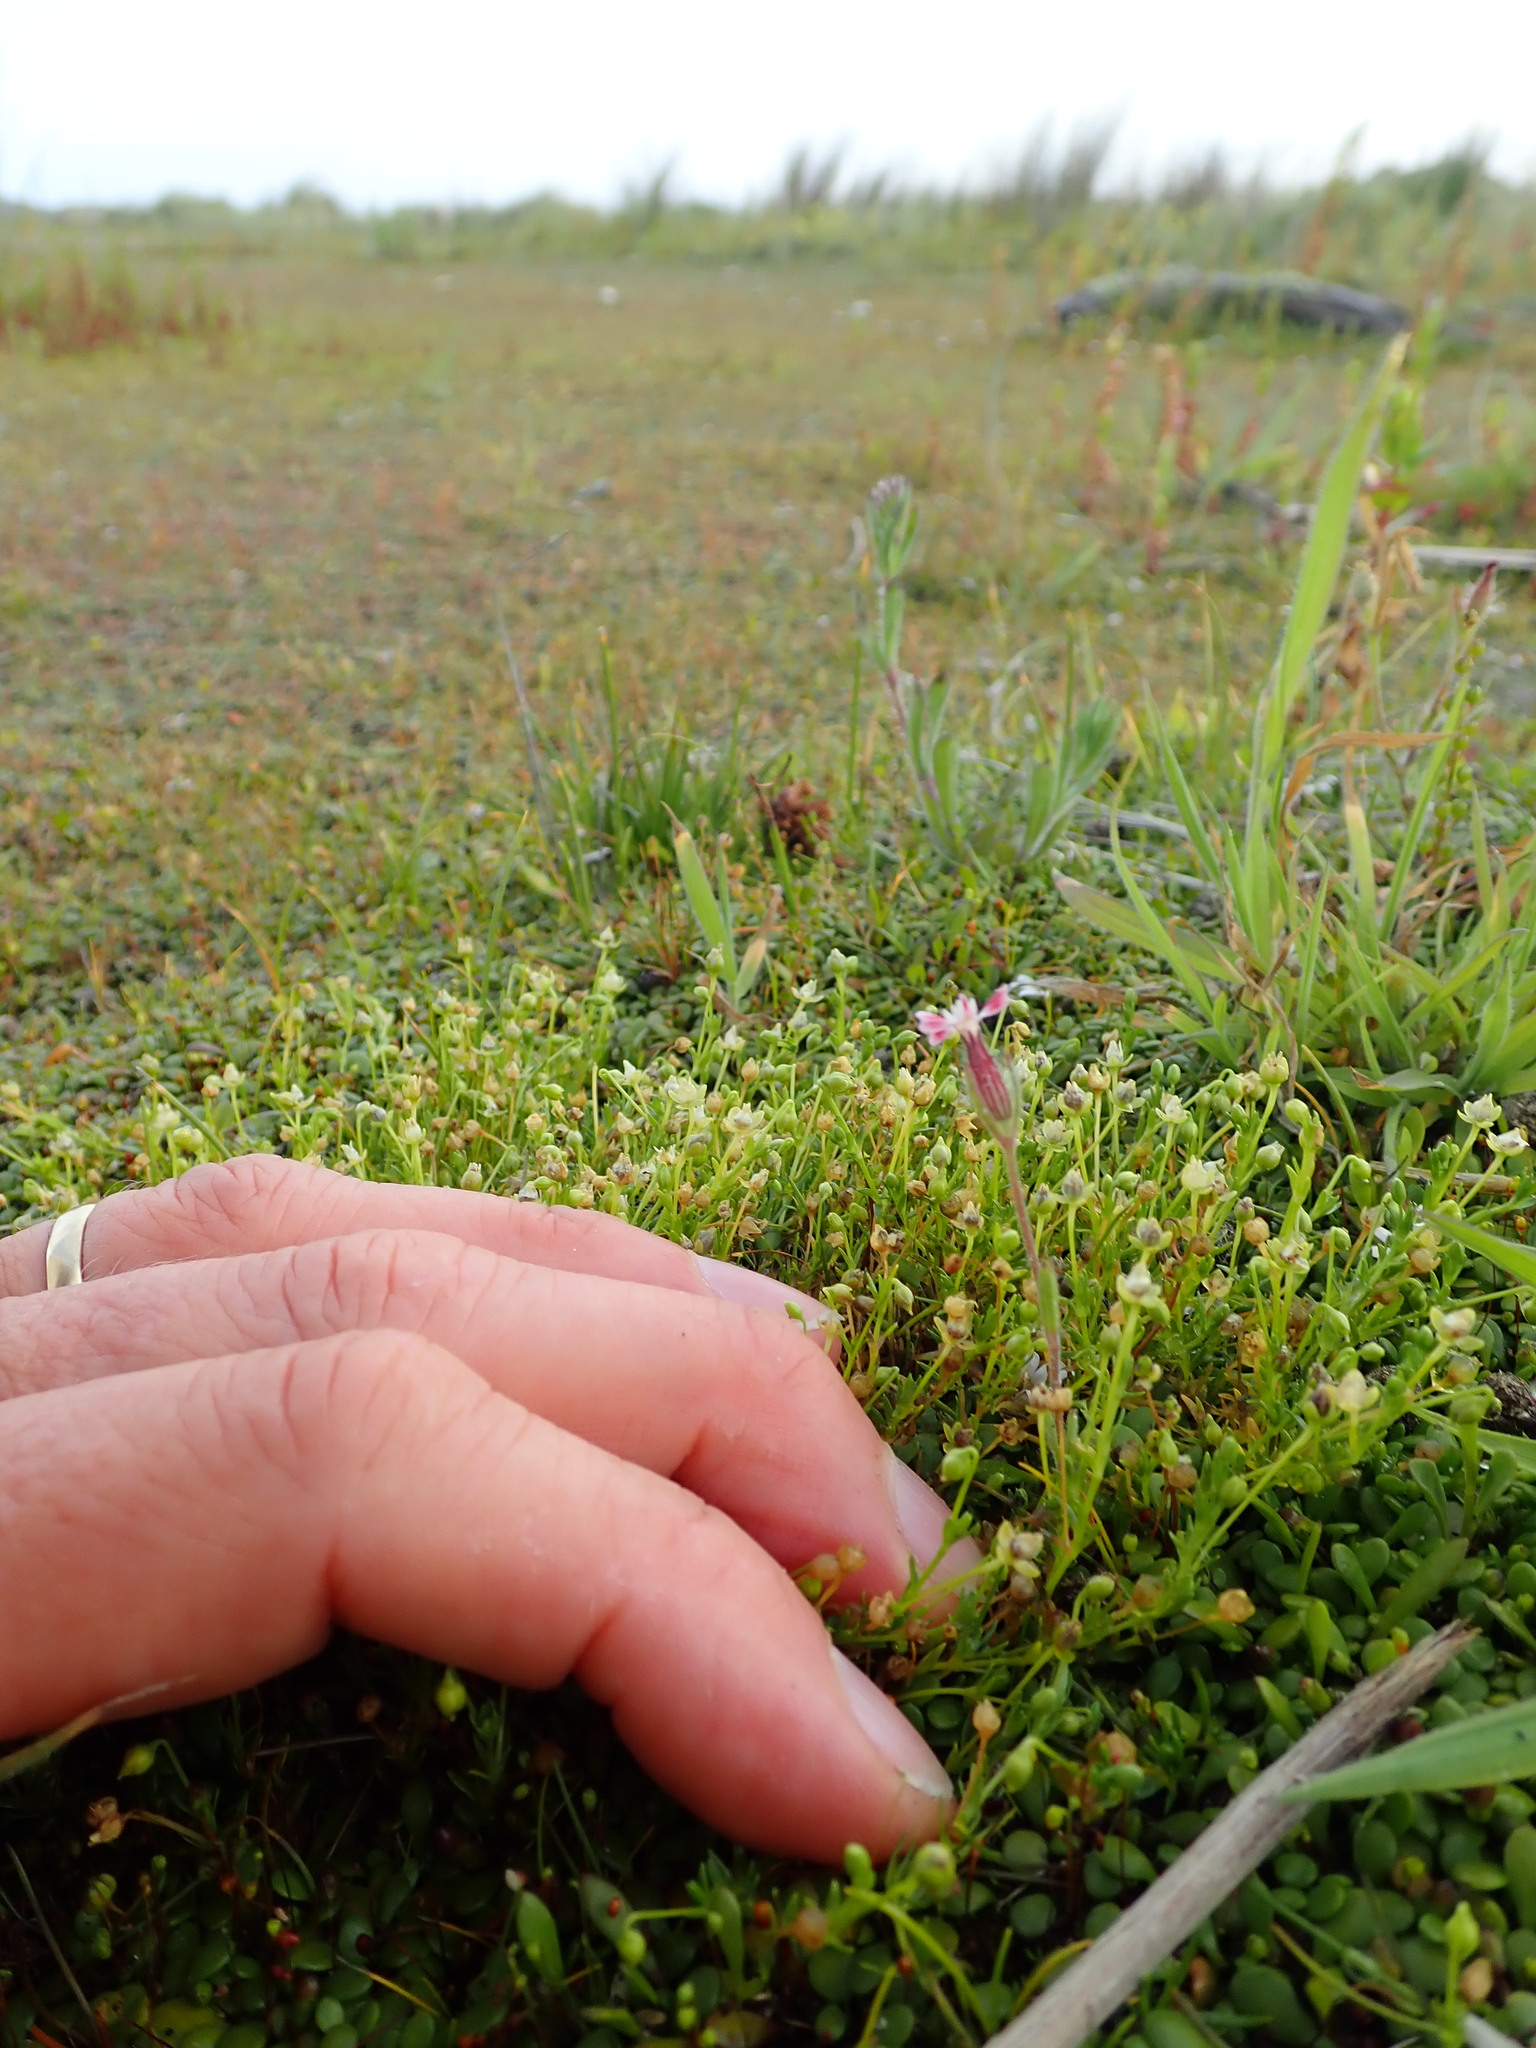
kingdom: Plantae
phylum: Tracheophyta
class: Magnoliopsida
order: Caryophyllales
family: Caryophyllaceae
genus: Silene
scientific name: Silene gallica
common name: Small-flowered catchfly
